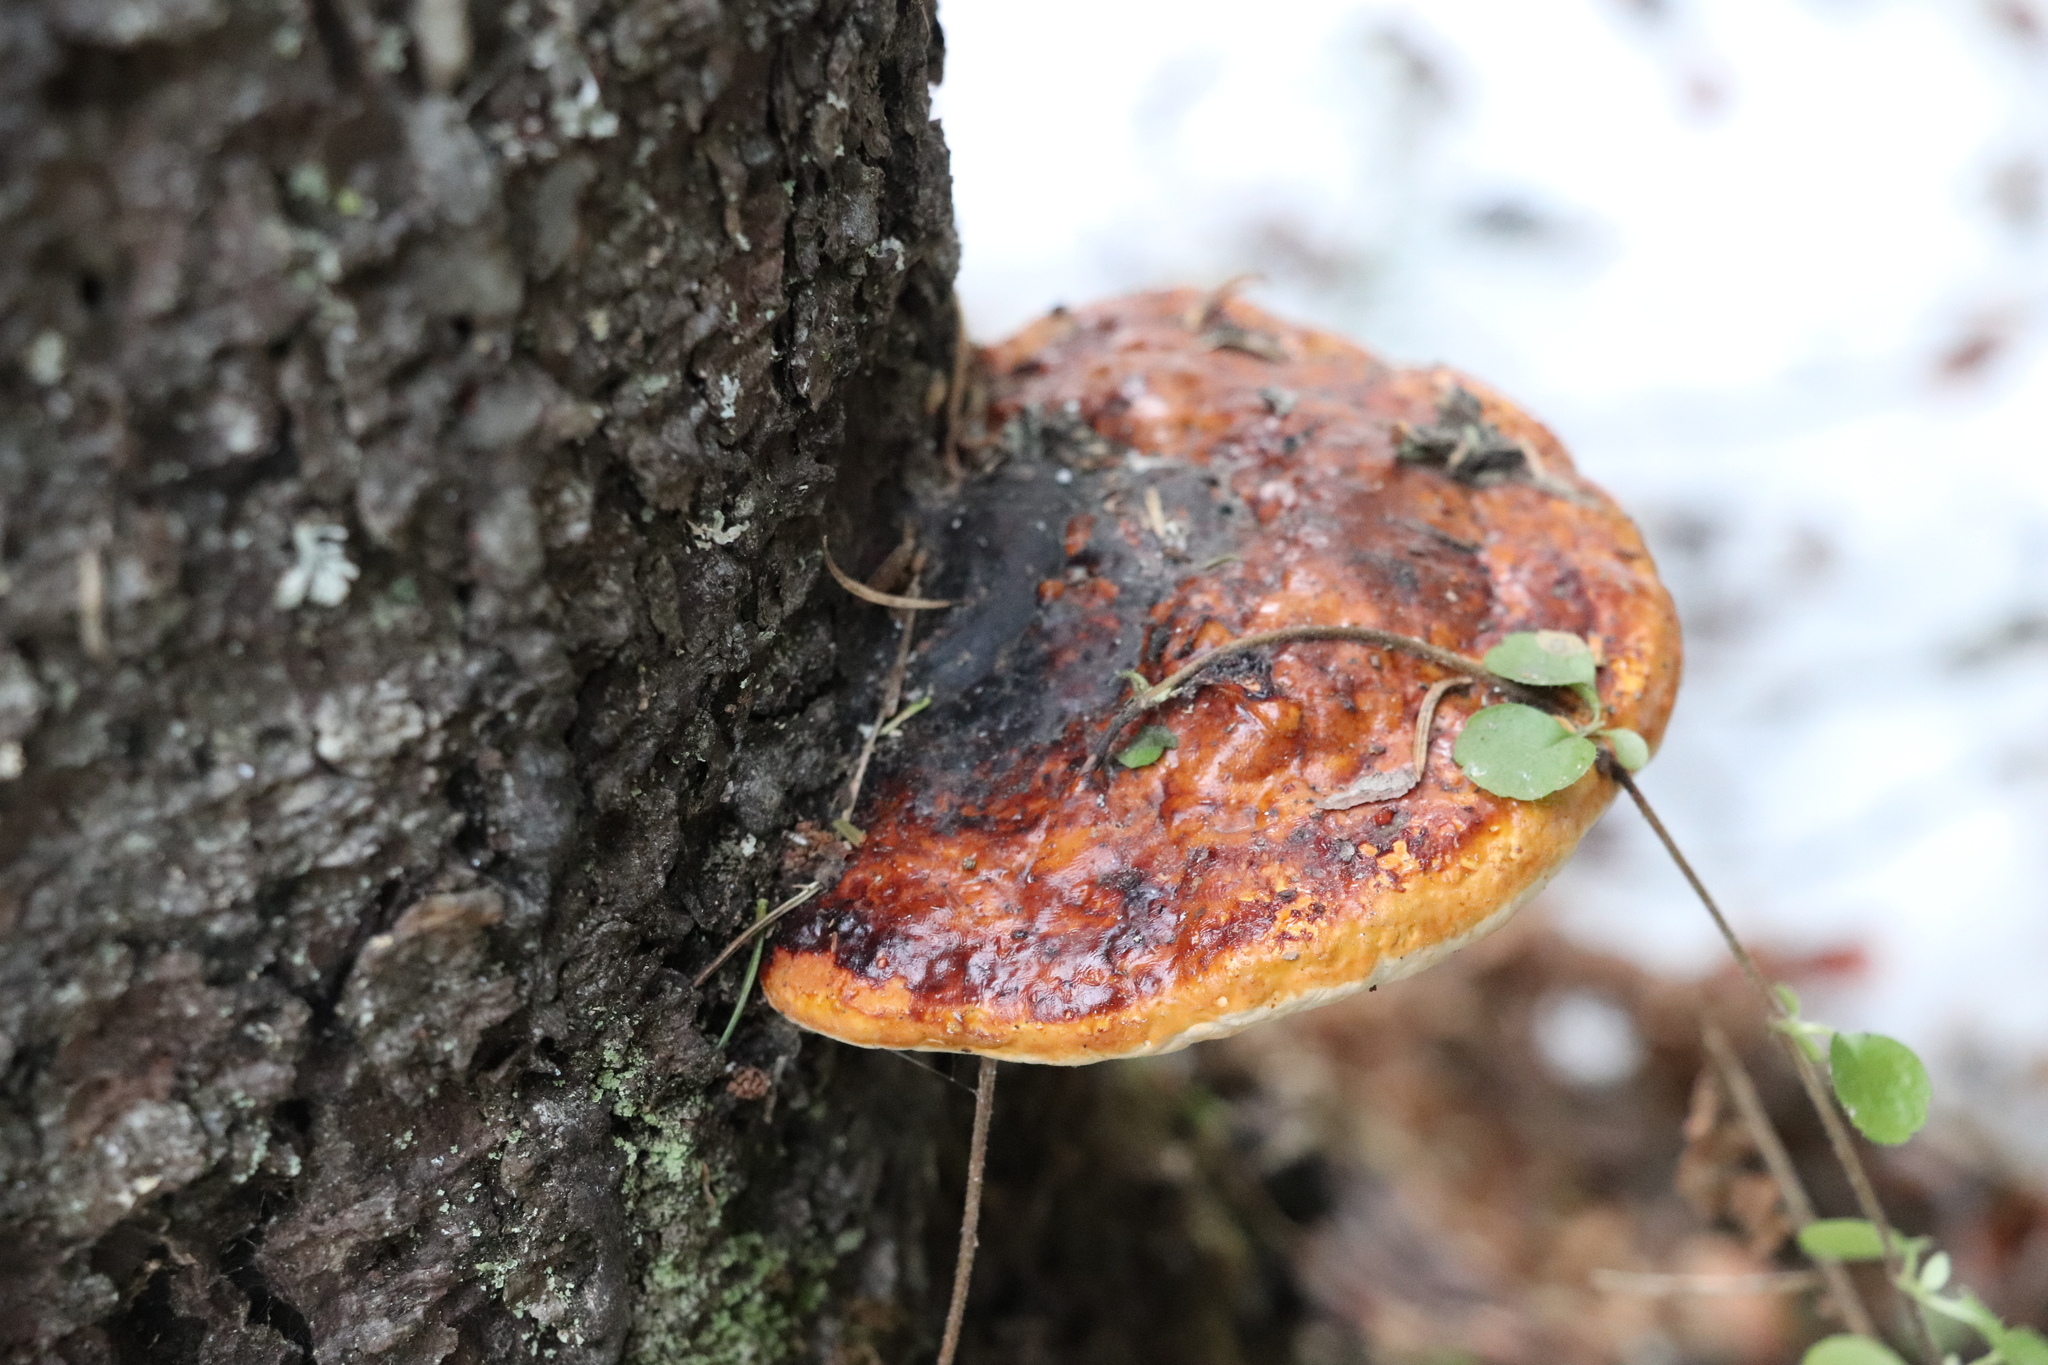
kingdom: Fungi
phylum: Basidiomycota
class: Agaricomycetes
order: Polyporales
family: Fomitopsidaceae
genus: Fomitopsis
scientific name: Fomitopsis pinicola
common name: Red-belted bracket
